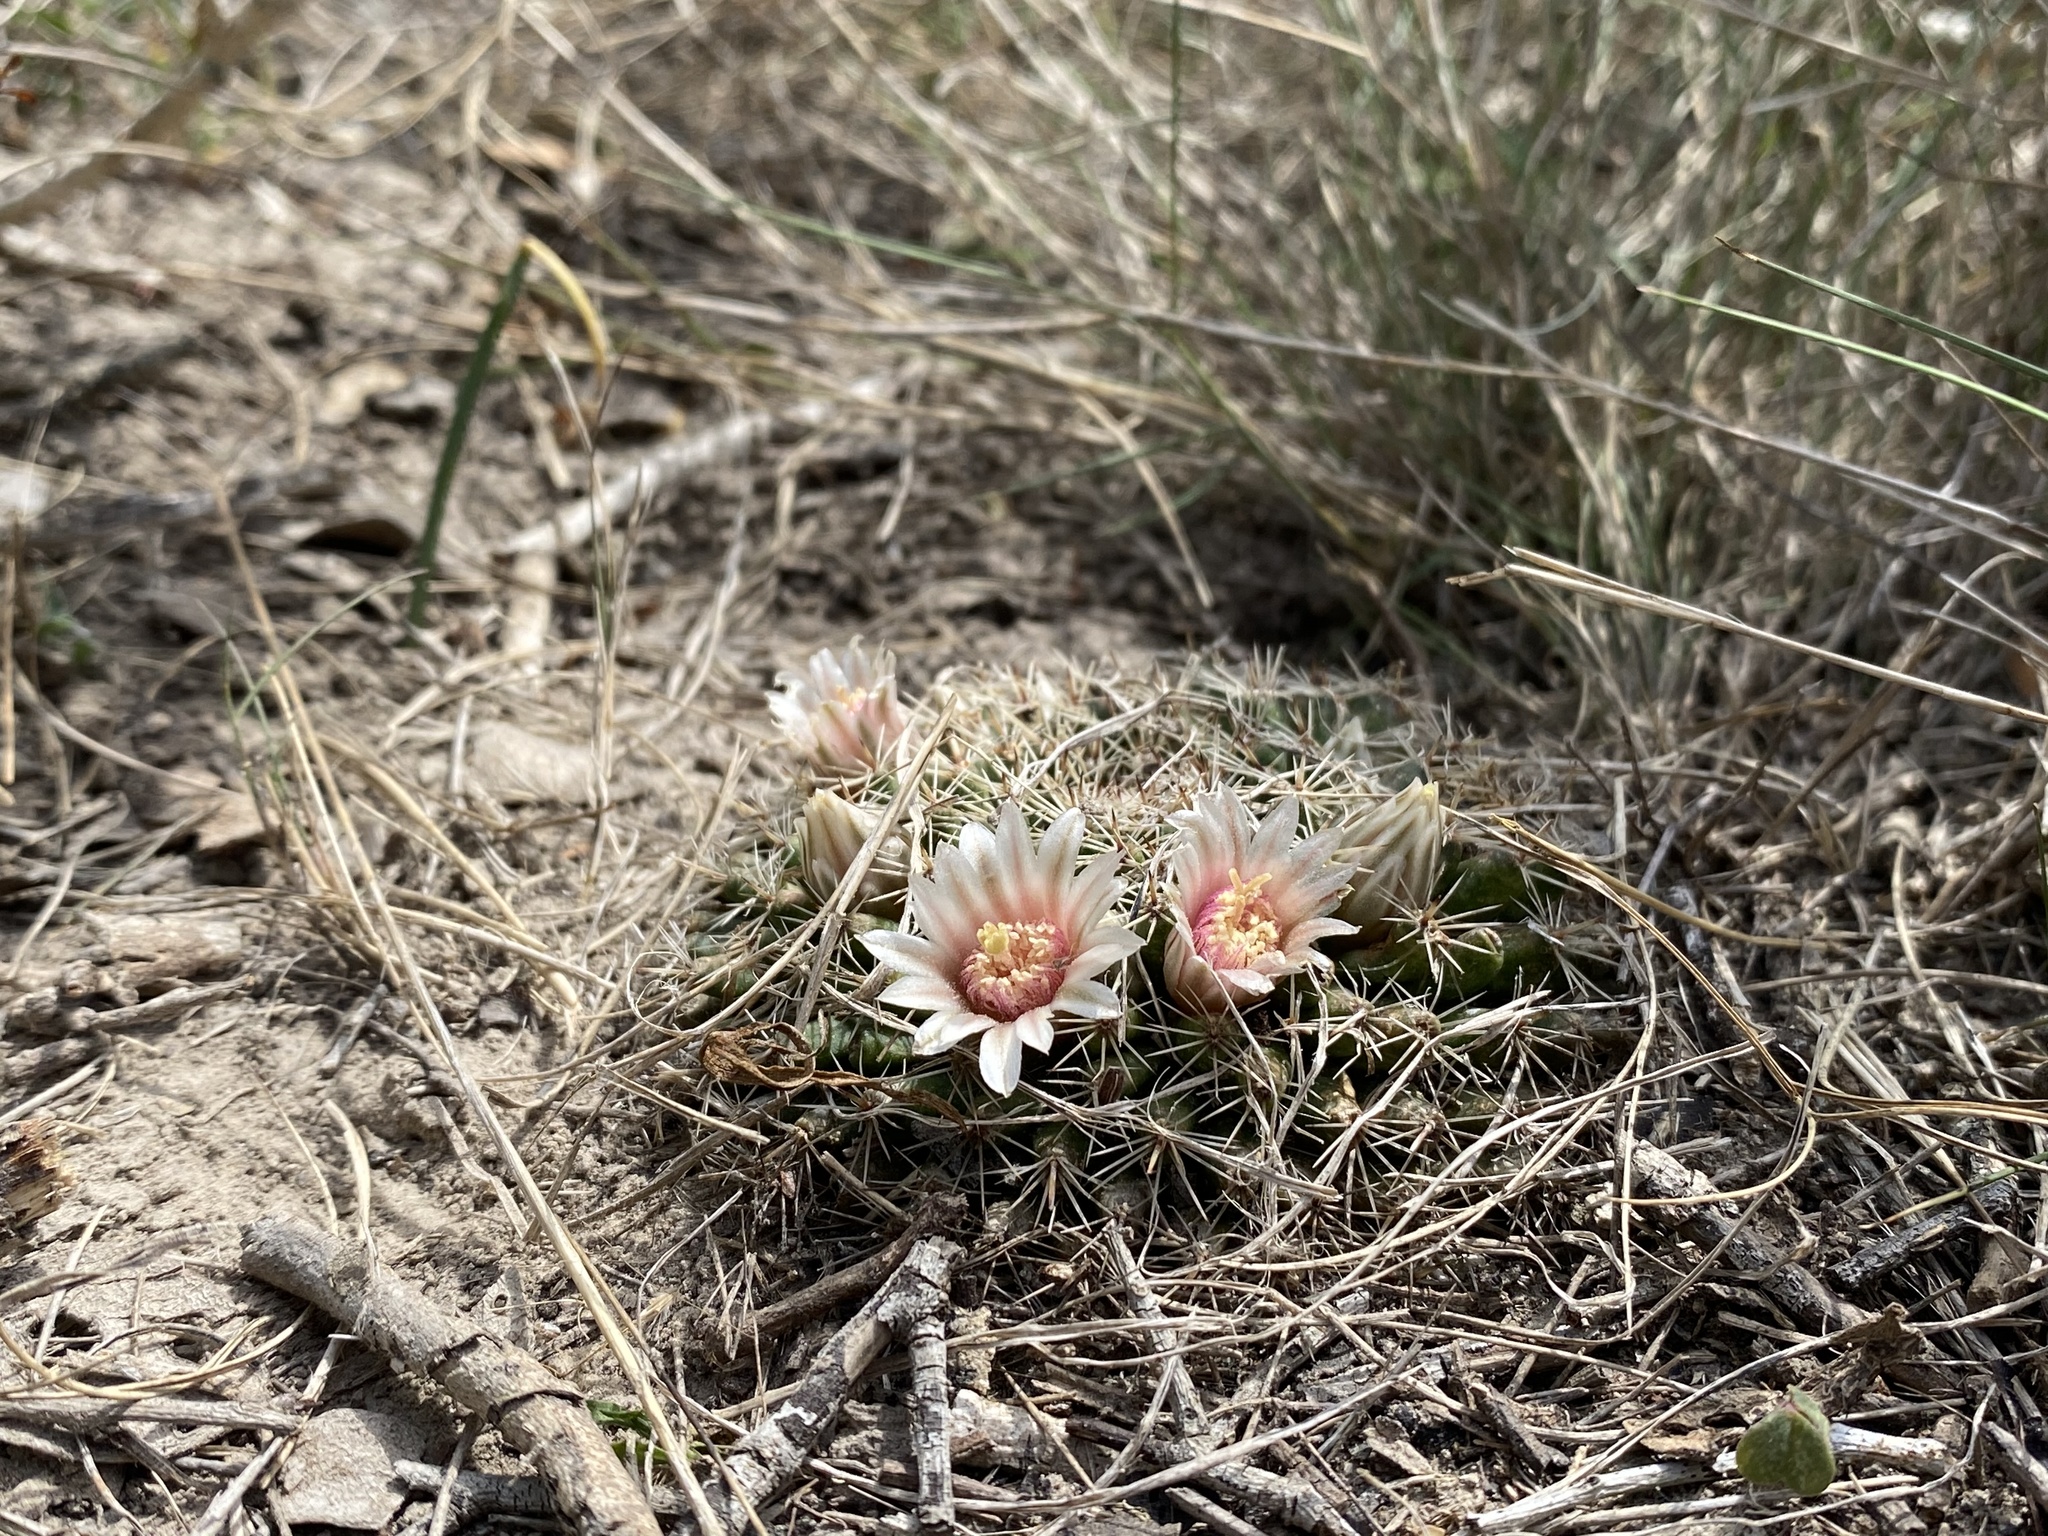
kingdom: Plantae
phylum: Tracheophyta
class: Magnoliopsida
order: Caryophyllales
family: Cactaceae
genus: Mammillaria
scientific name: Mammillaria heyderi
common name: Little nipple cactus
